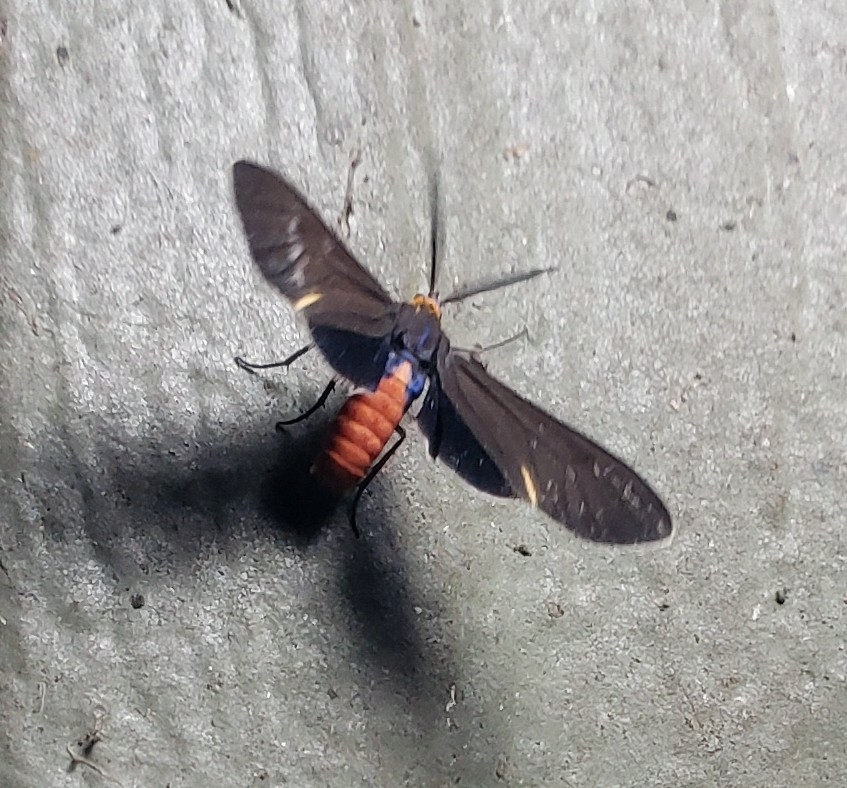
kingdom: Animalia
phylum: Arthropoda
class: Insecta
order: Lepidoptera
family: Erebidae
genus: Dahana
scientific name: Dahana atripennis
